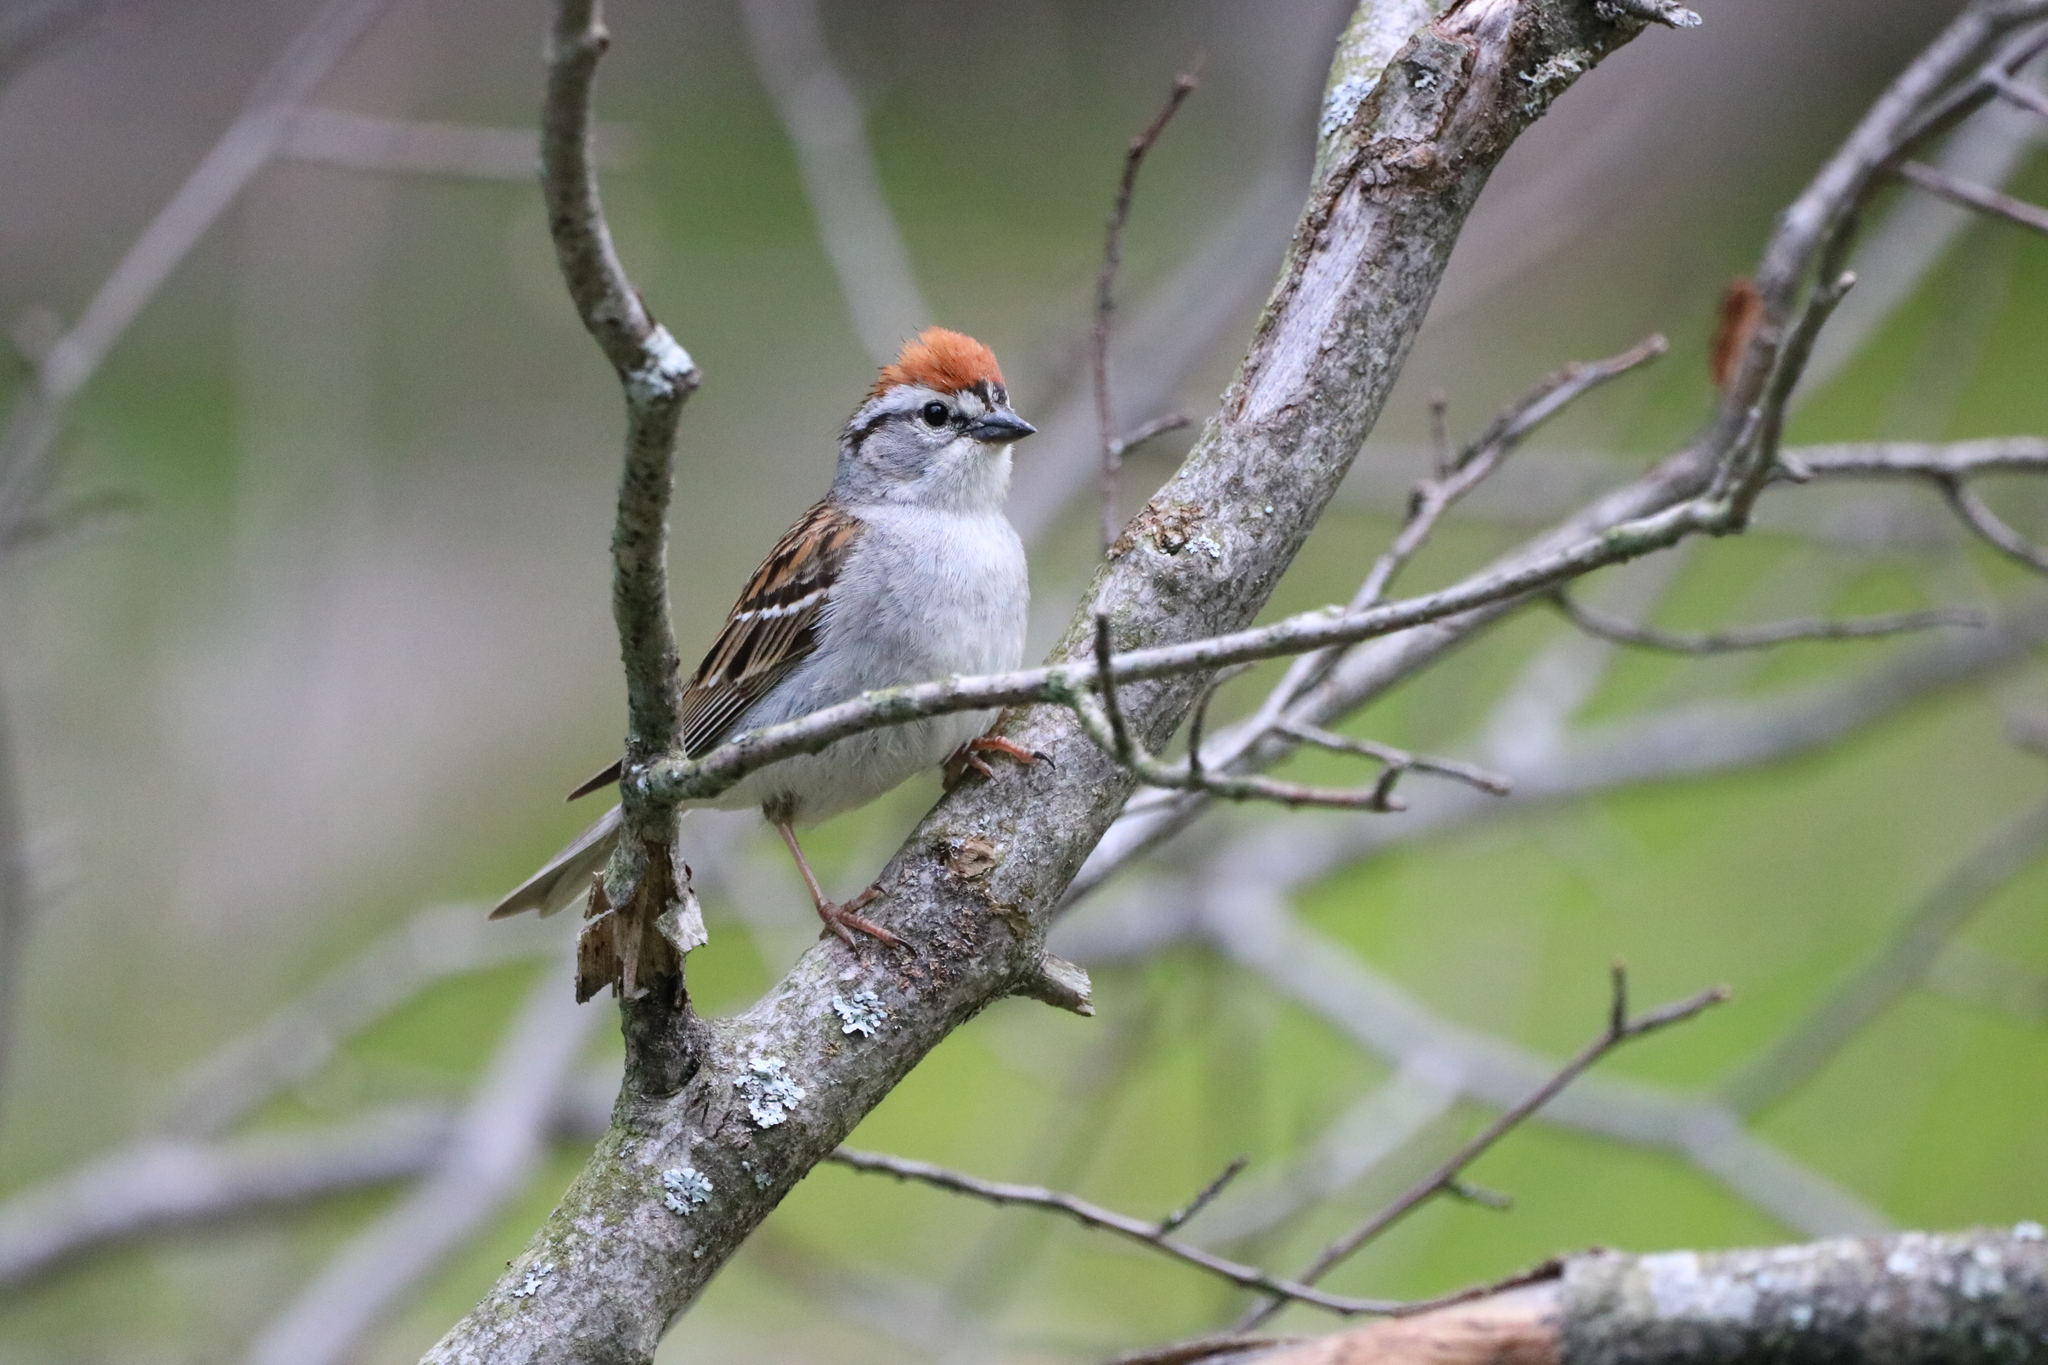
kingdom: Animalia
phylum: Chordata
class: Aves
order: Passeriformes
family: Passerellidae
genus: Spizella
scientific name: Spizella passerina
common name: Chipping sparrow
